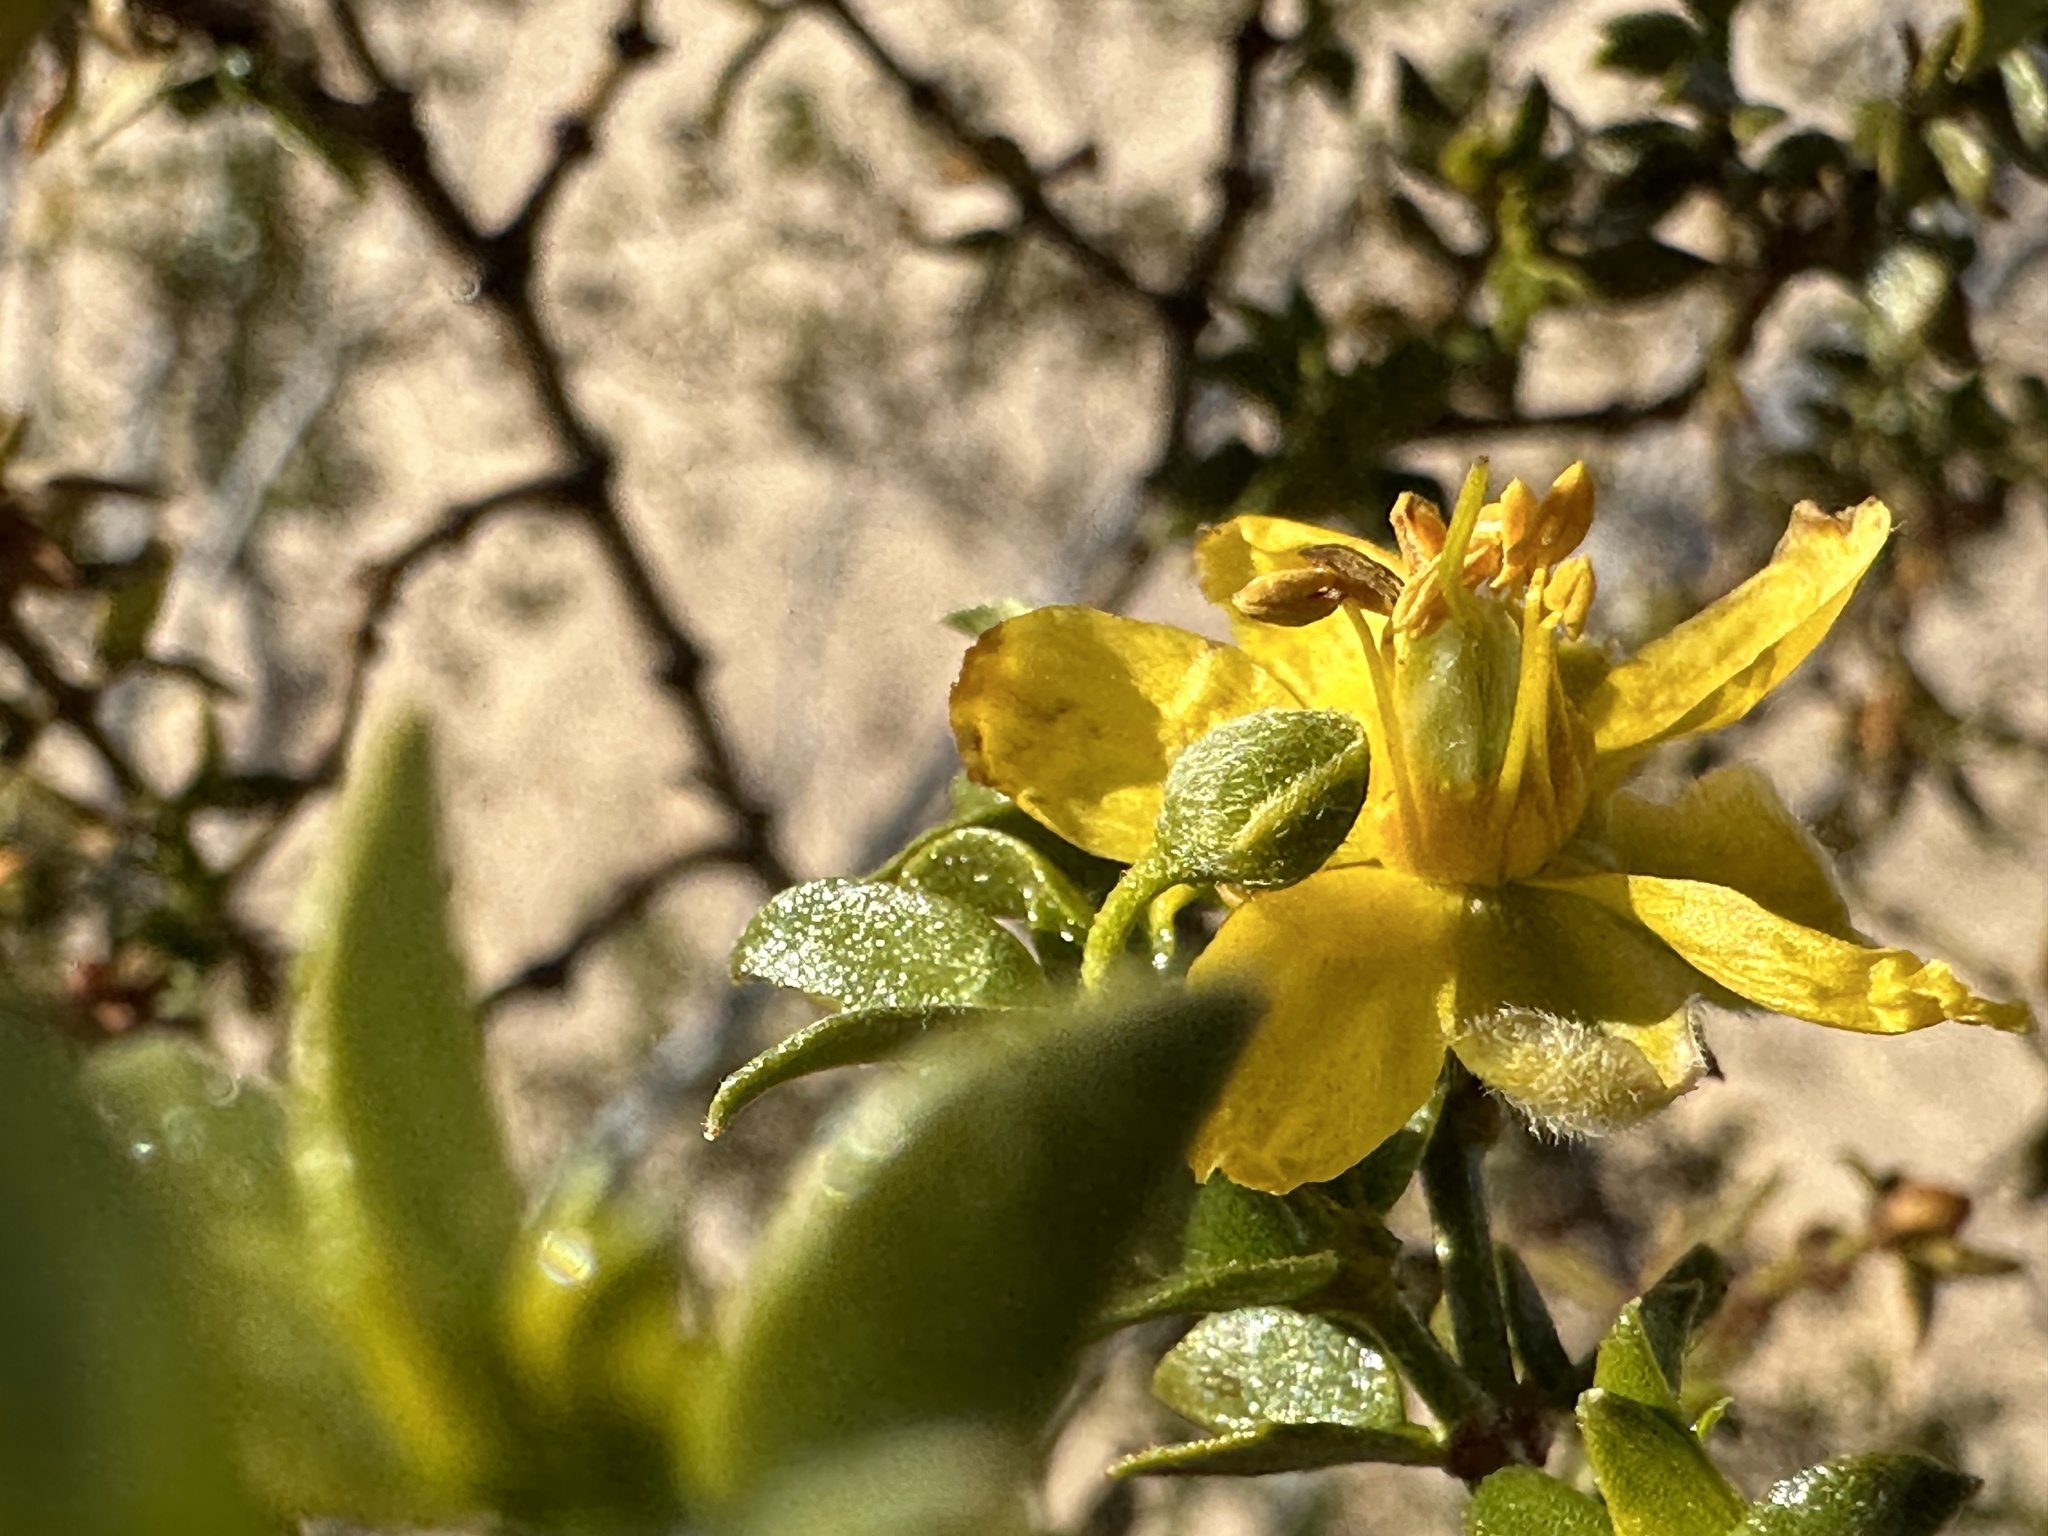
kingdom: Plantae
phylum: Tracheophyta
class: Magnoliopsida
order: Zygophyllales
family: Zygophyllaceae
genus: Larrea
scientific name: Larrea tridentata
